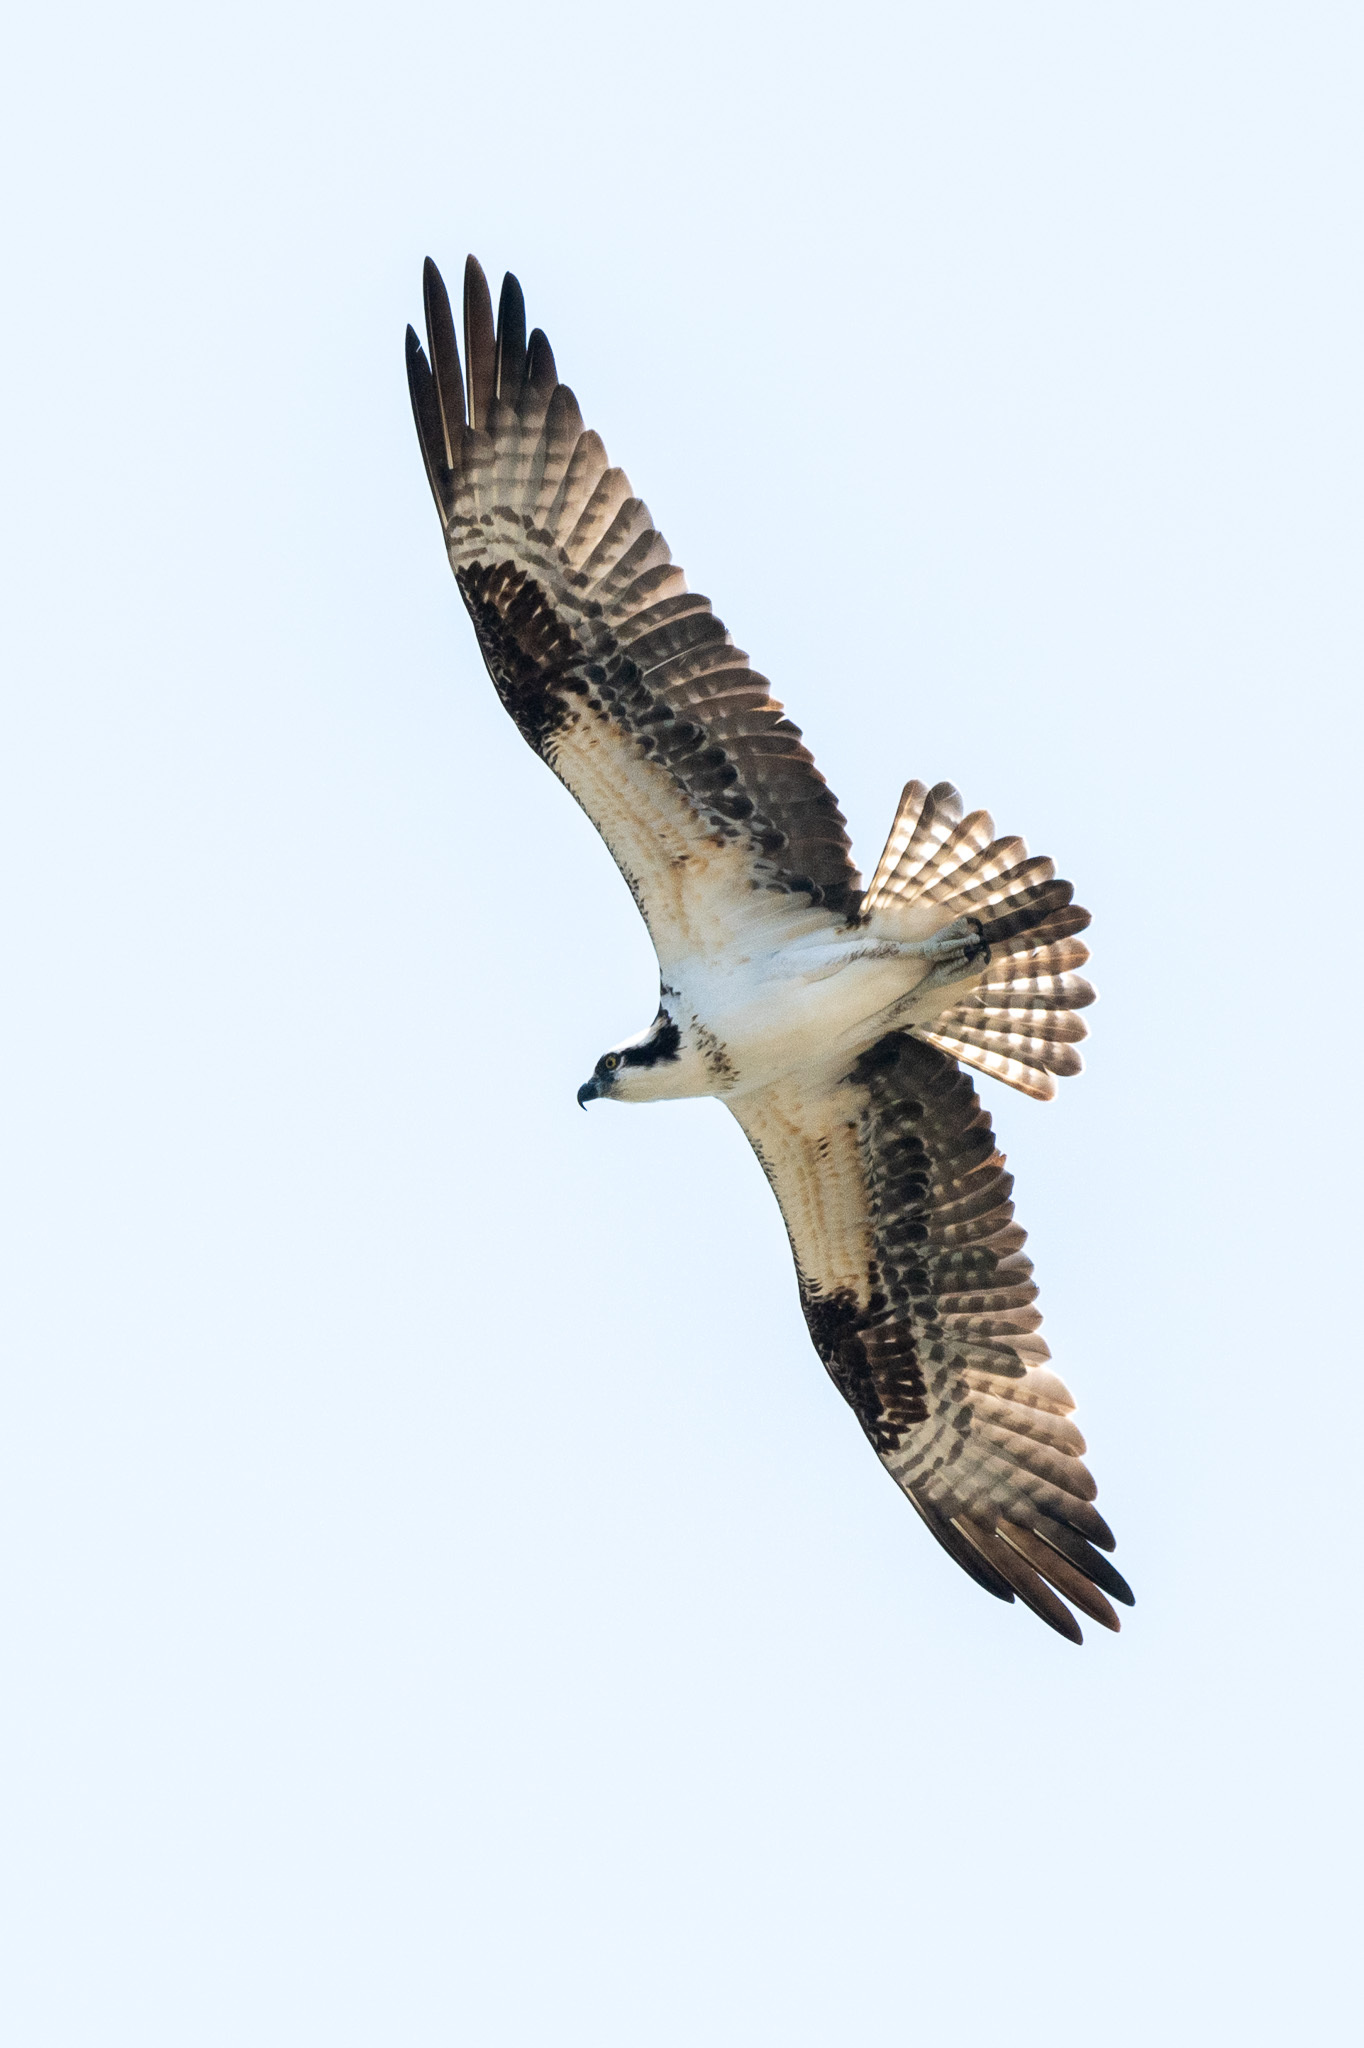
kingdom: Animalia
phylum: Chordata
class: Aves
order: Accipitriformes
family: Pandionidae
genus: Pandion
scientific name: Pandion haliaetus
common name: Osprey
